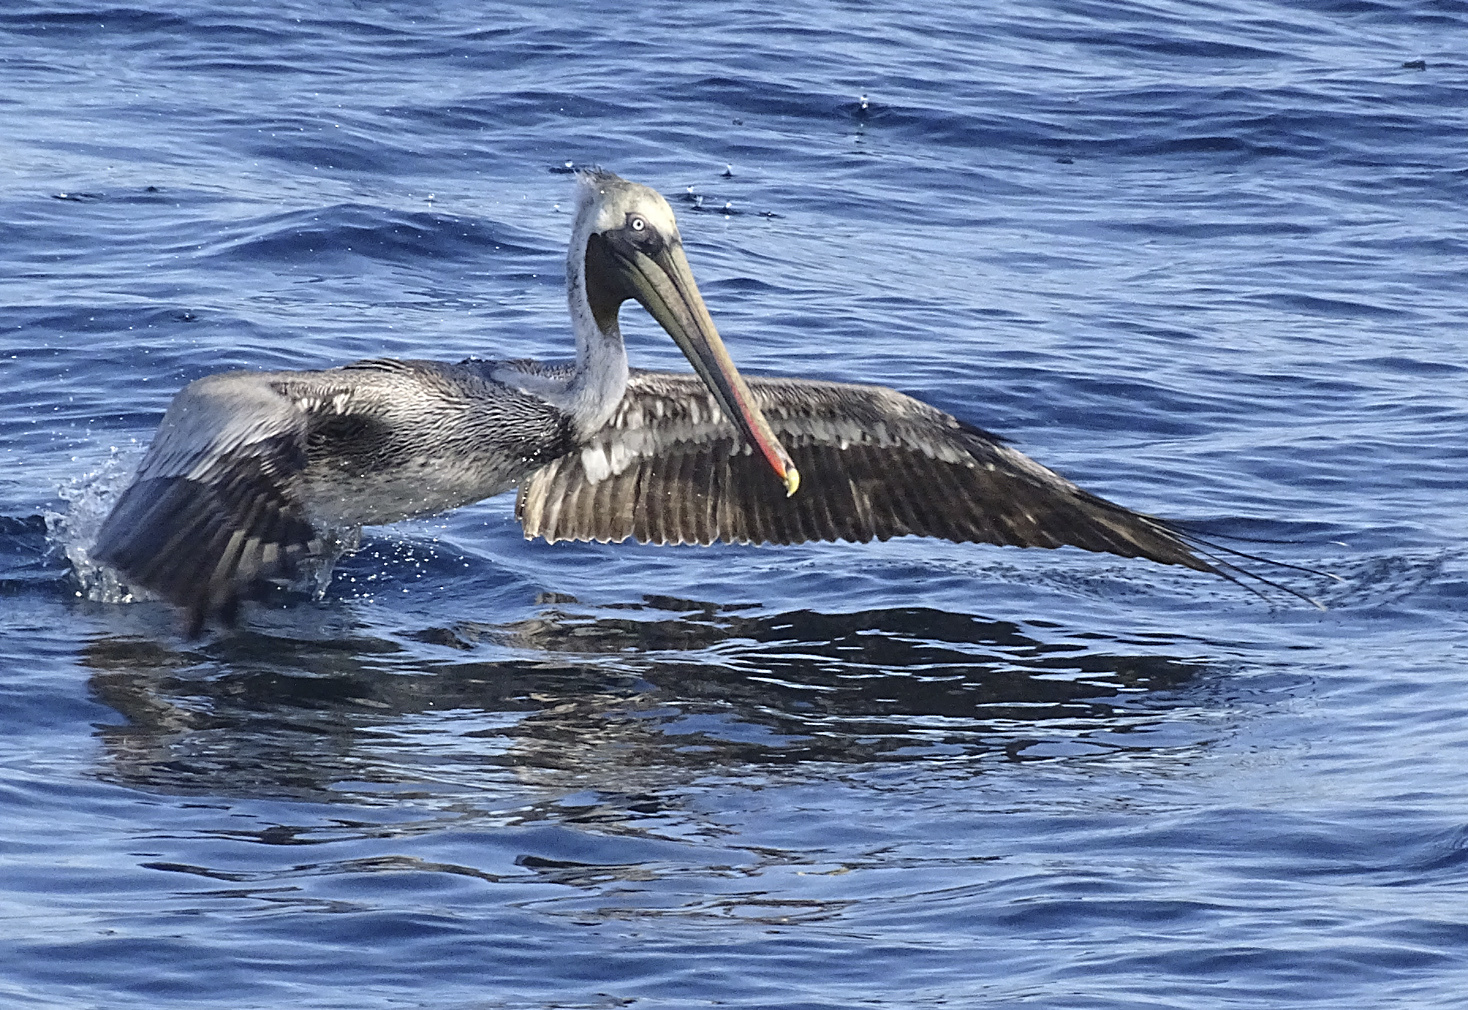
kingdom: Animalia
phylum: Chordata
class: Aves
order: Pelecaniformes
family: Pelecanidae
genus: Pelecanus
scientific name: Pelecanus occidentalis
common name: Brown pelican
